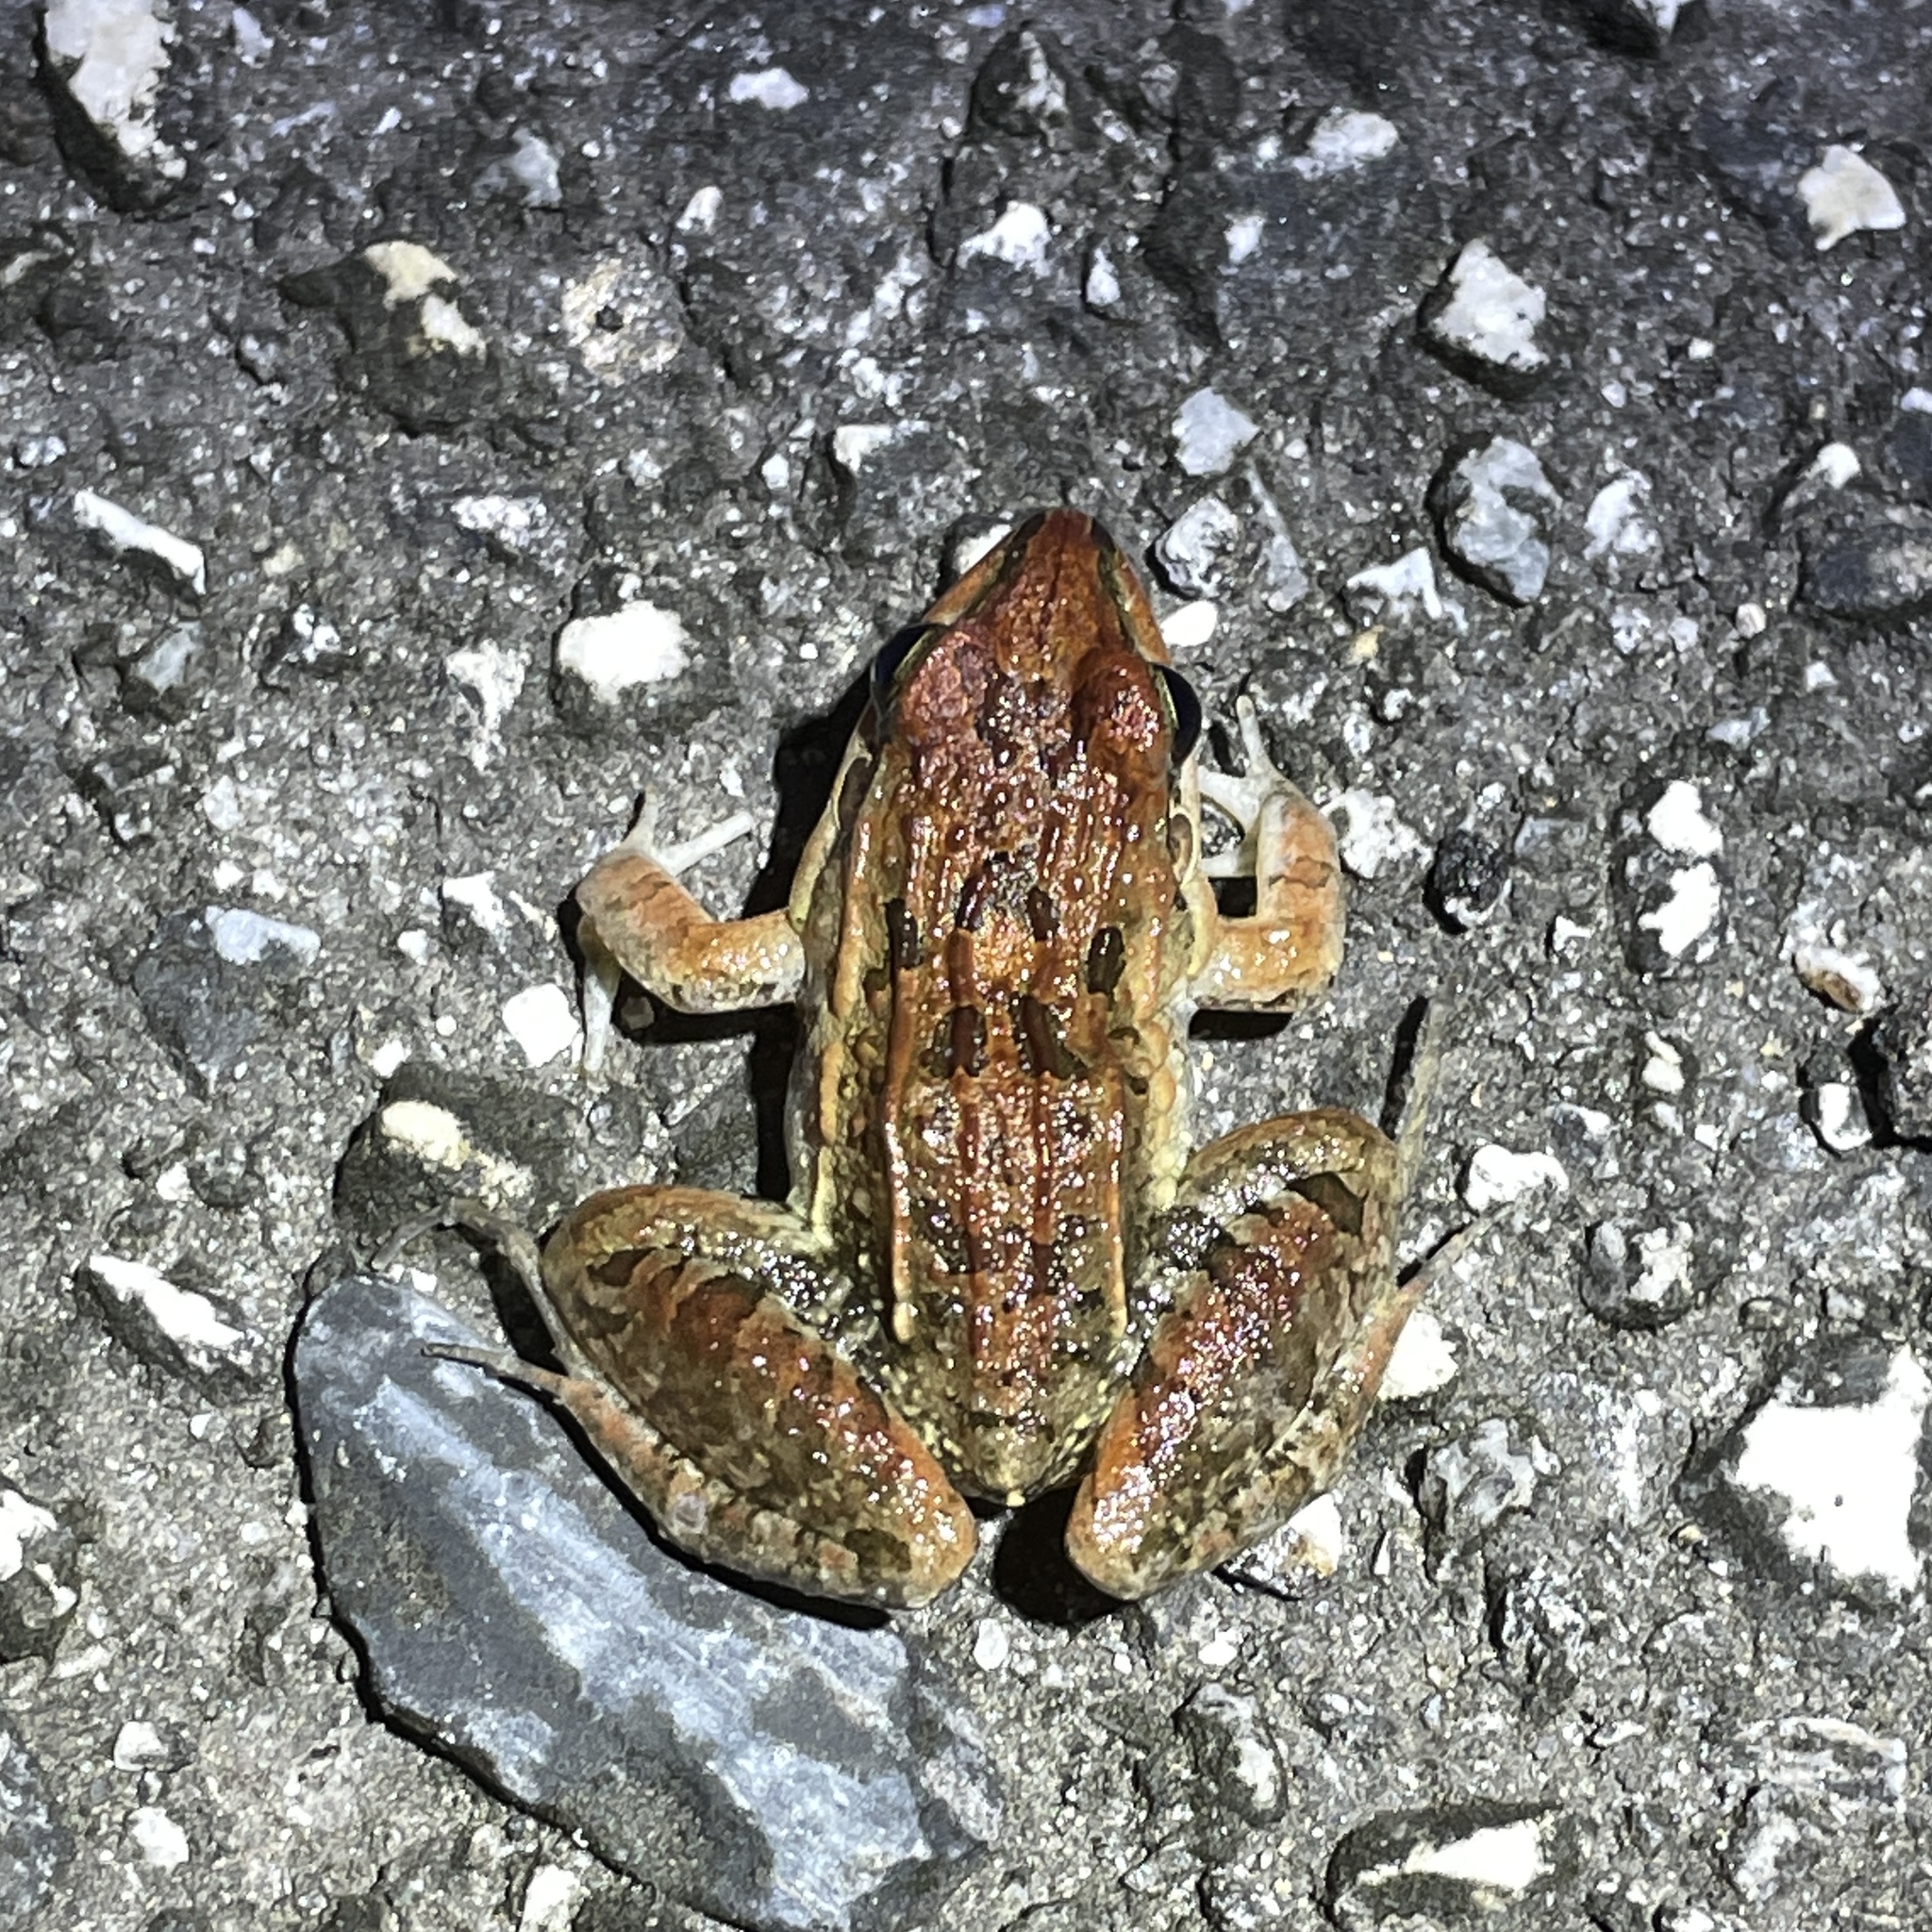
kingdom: Animalia
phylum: Chordata
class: Amphibia
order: Anura
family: Leptodactylidae
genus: Leptodactylus
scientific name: Leptodactylus fuscus
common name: Rufous frog
